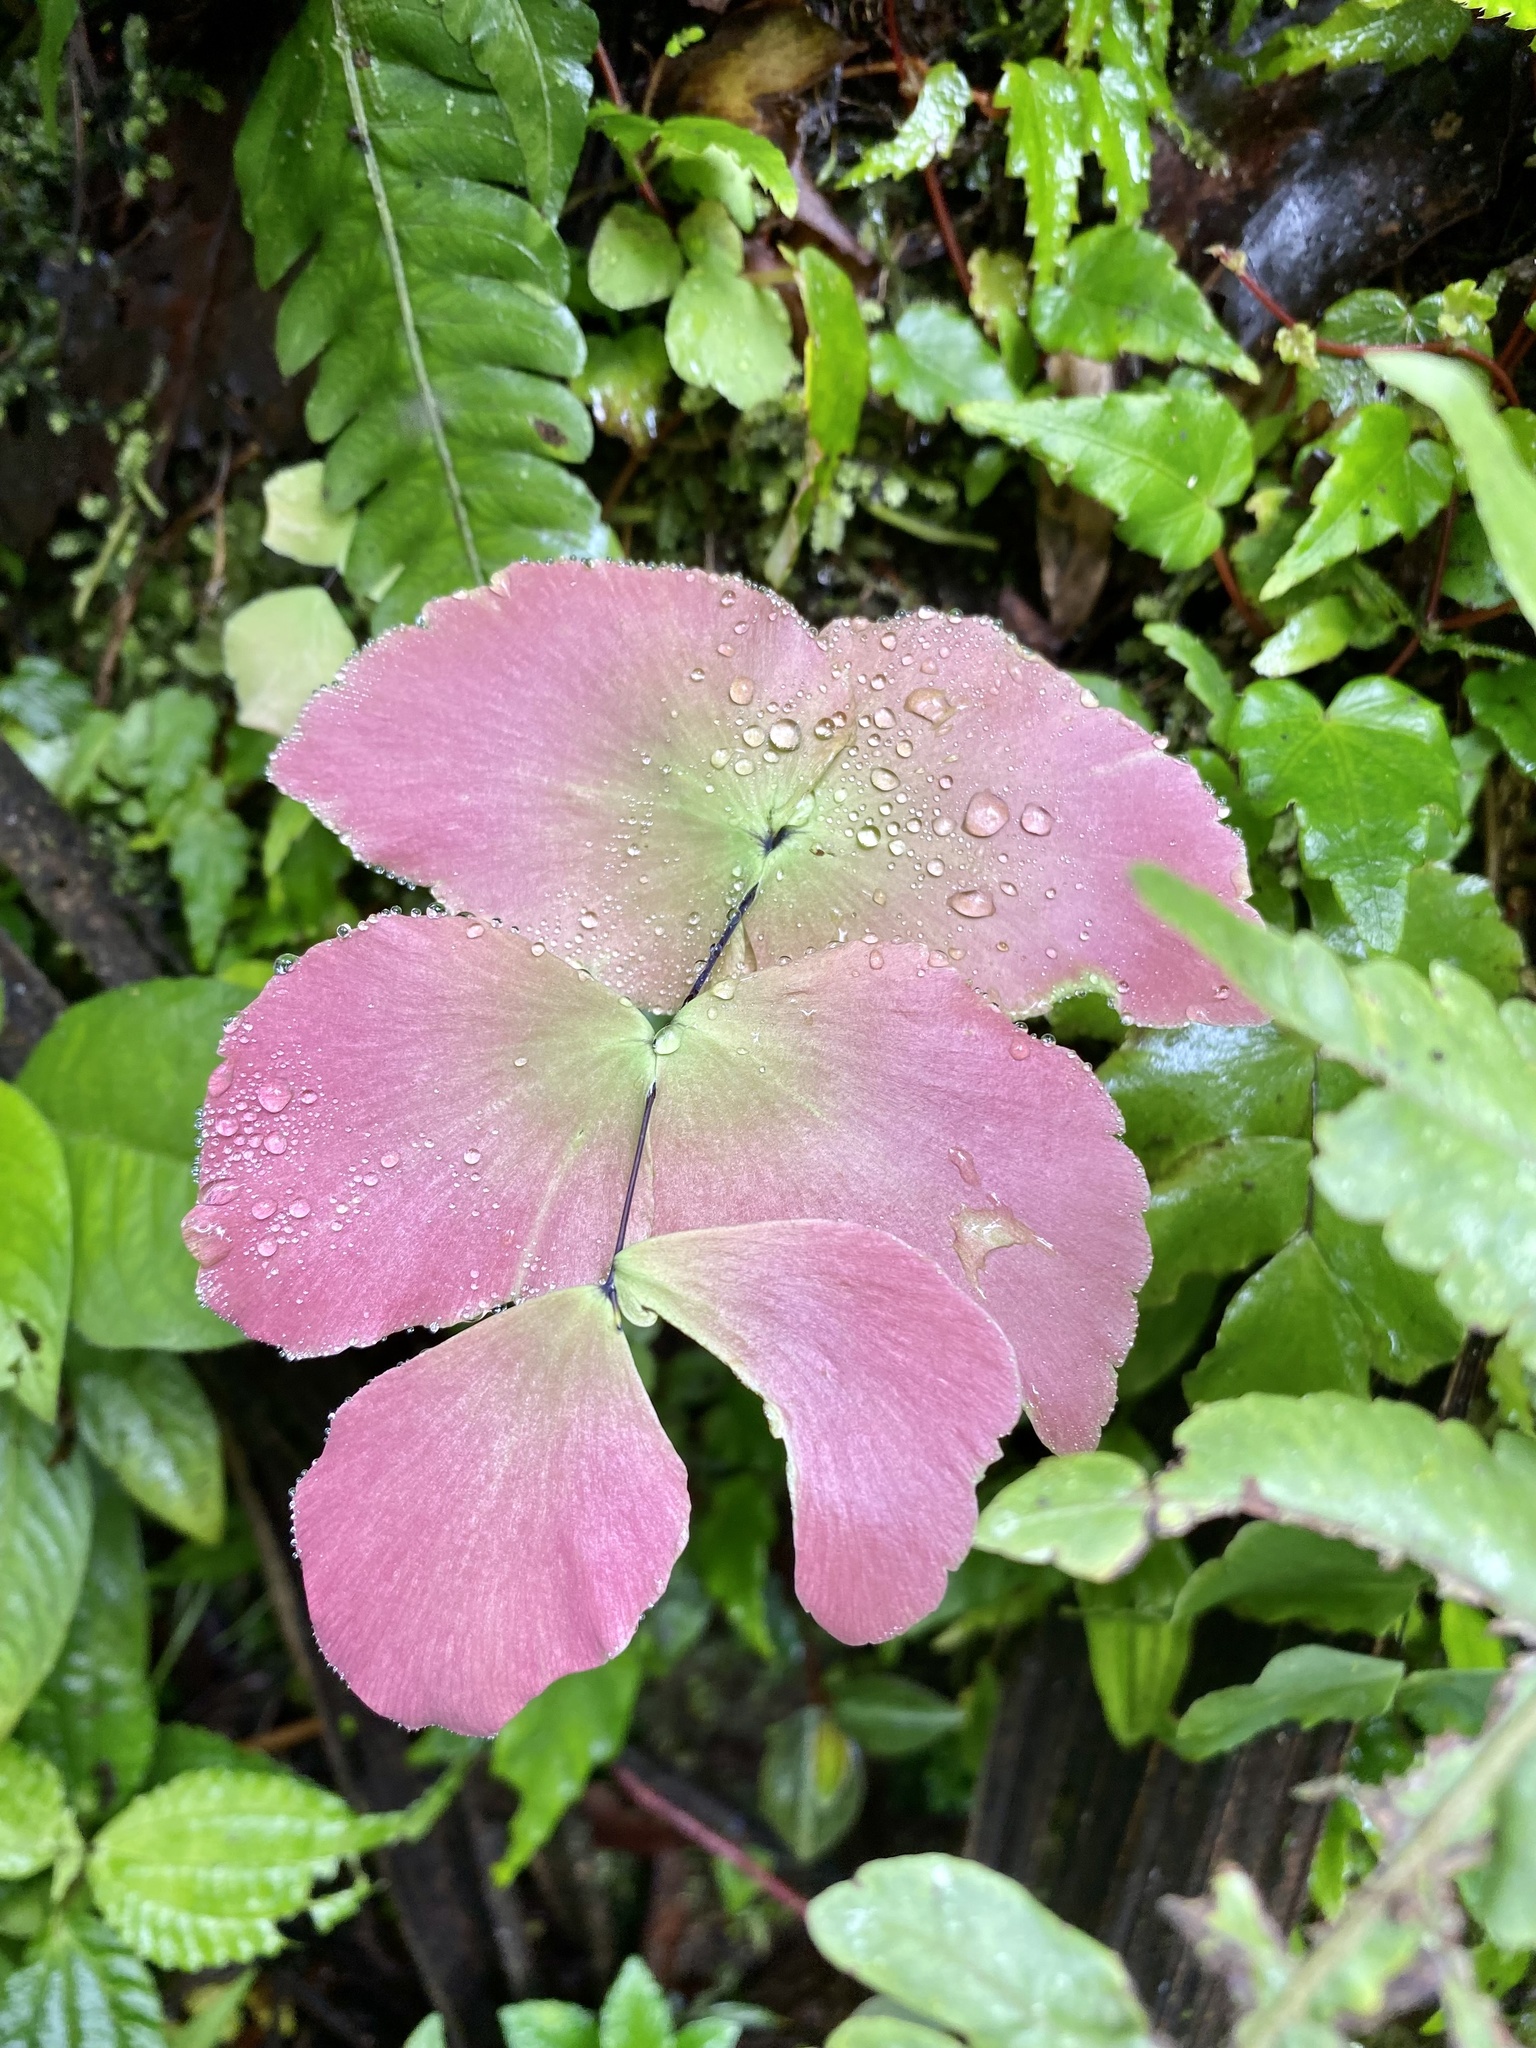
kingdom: Plantae
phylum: Tracheophyta
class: Polypodiopsida
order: Polypodiales
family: Pteridaceae
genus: Adiantum
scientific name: Adiantum macrophyllum
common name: Largeleaf maidenhair
